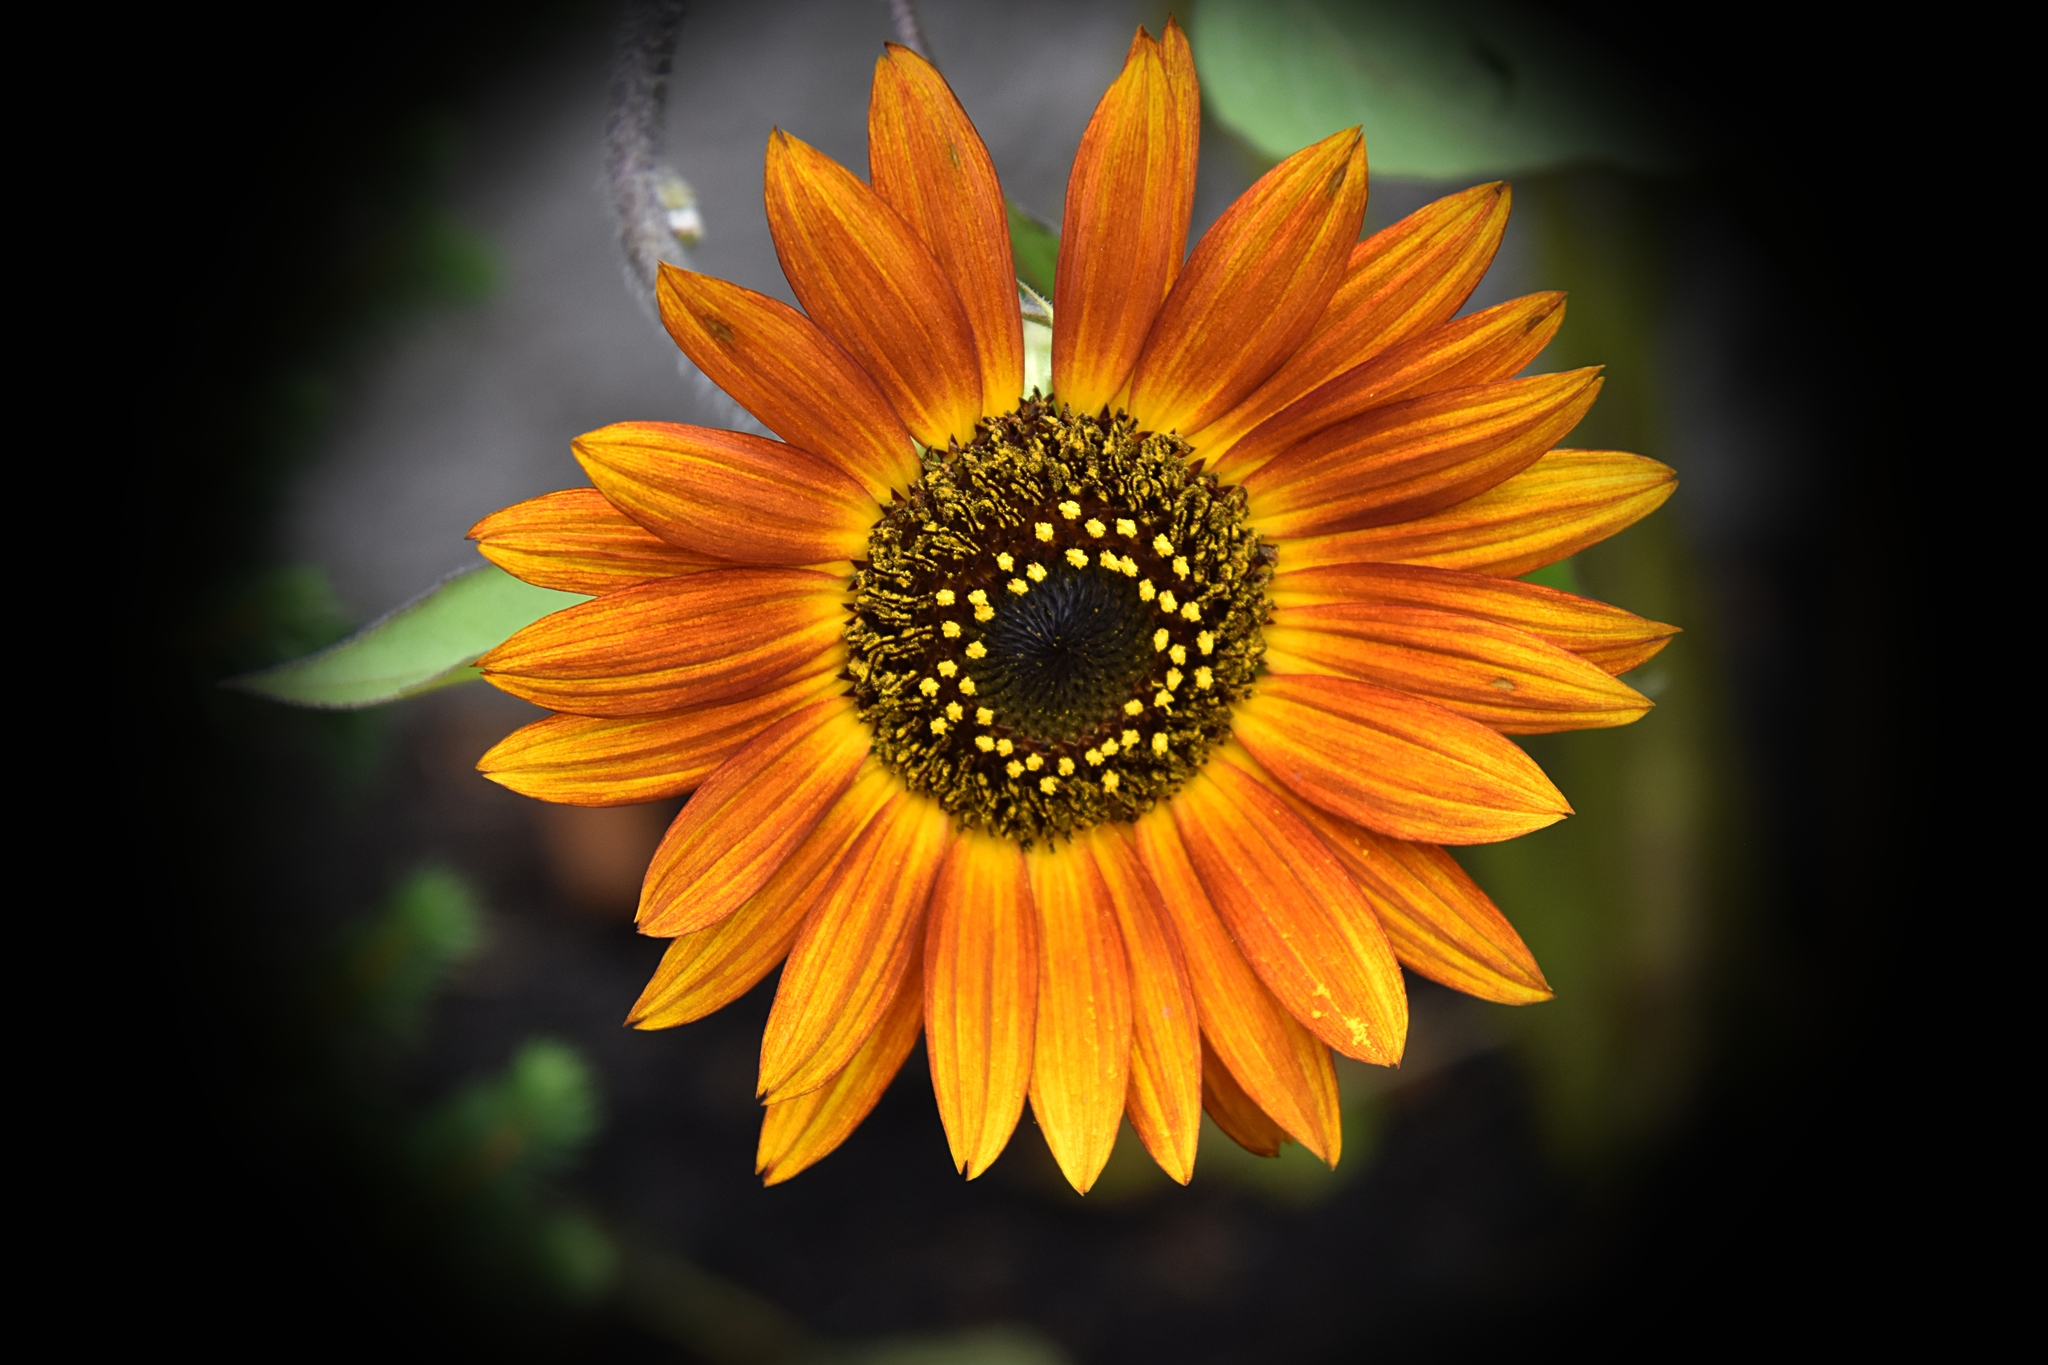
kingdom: Plantae
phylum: Tracheophyta
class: Magnoliopsida
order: Asterales
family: Asteraceae
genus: Helianthus
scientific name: Helianthus annuus
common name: Sunflower
